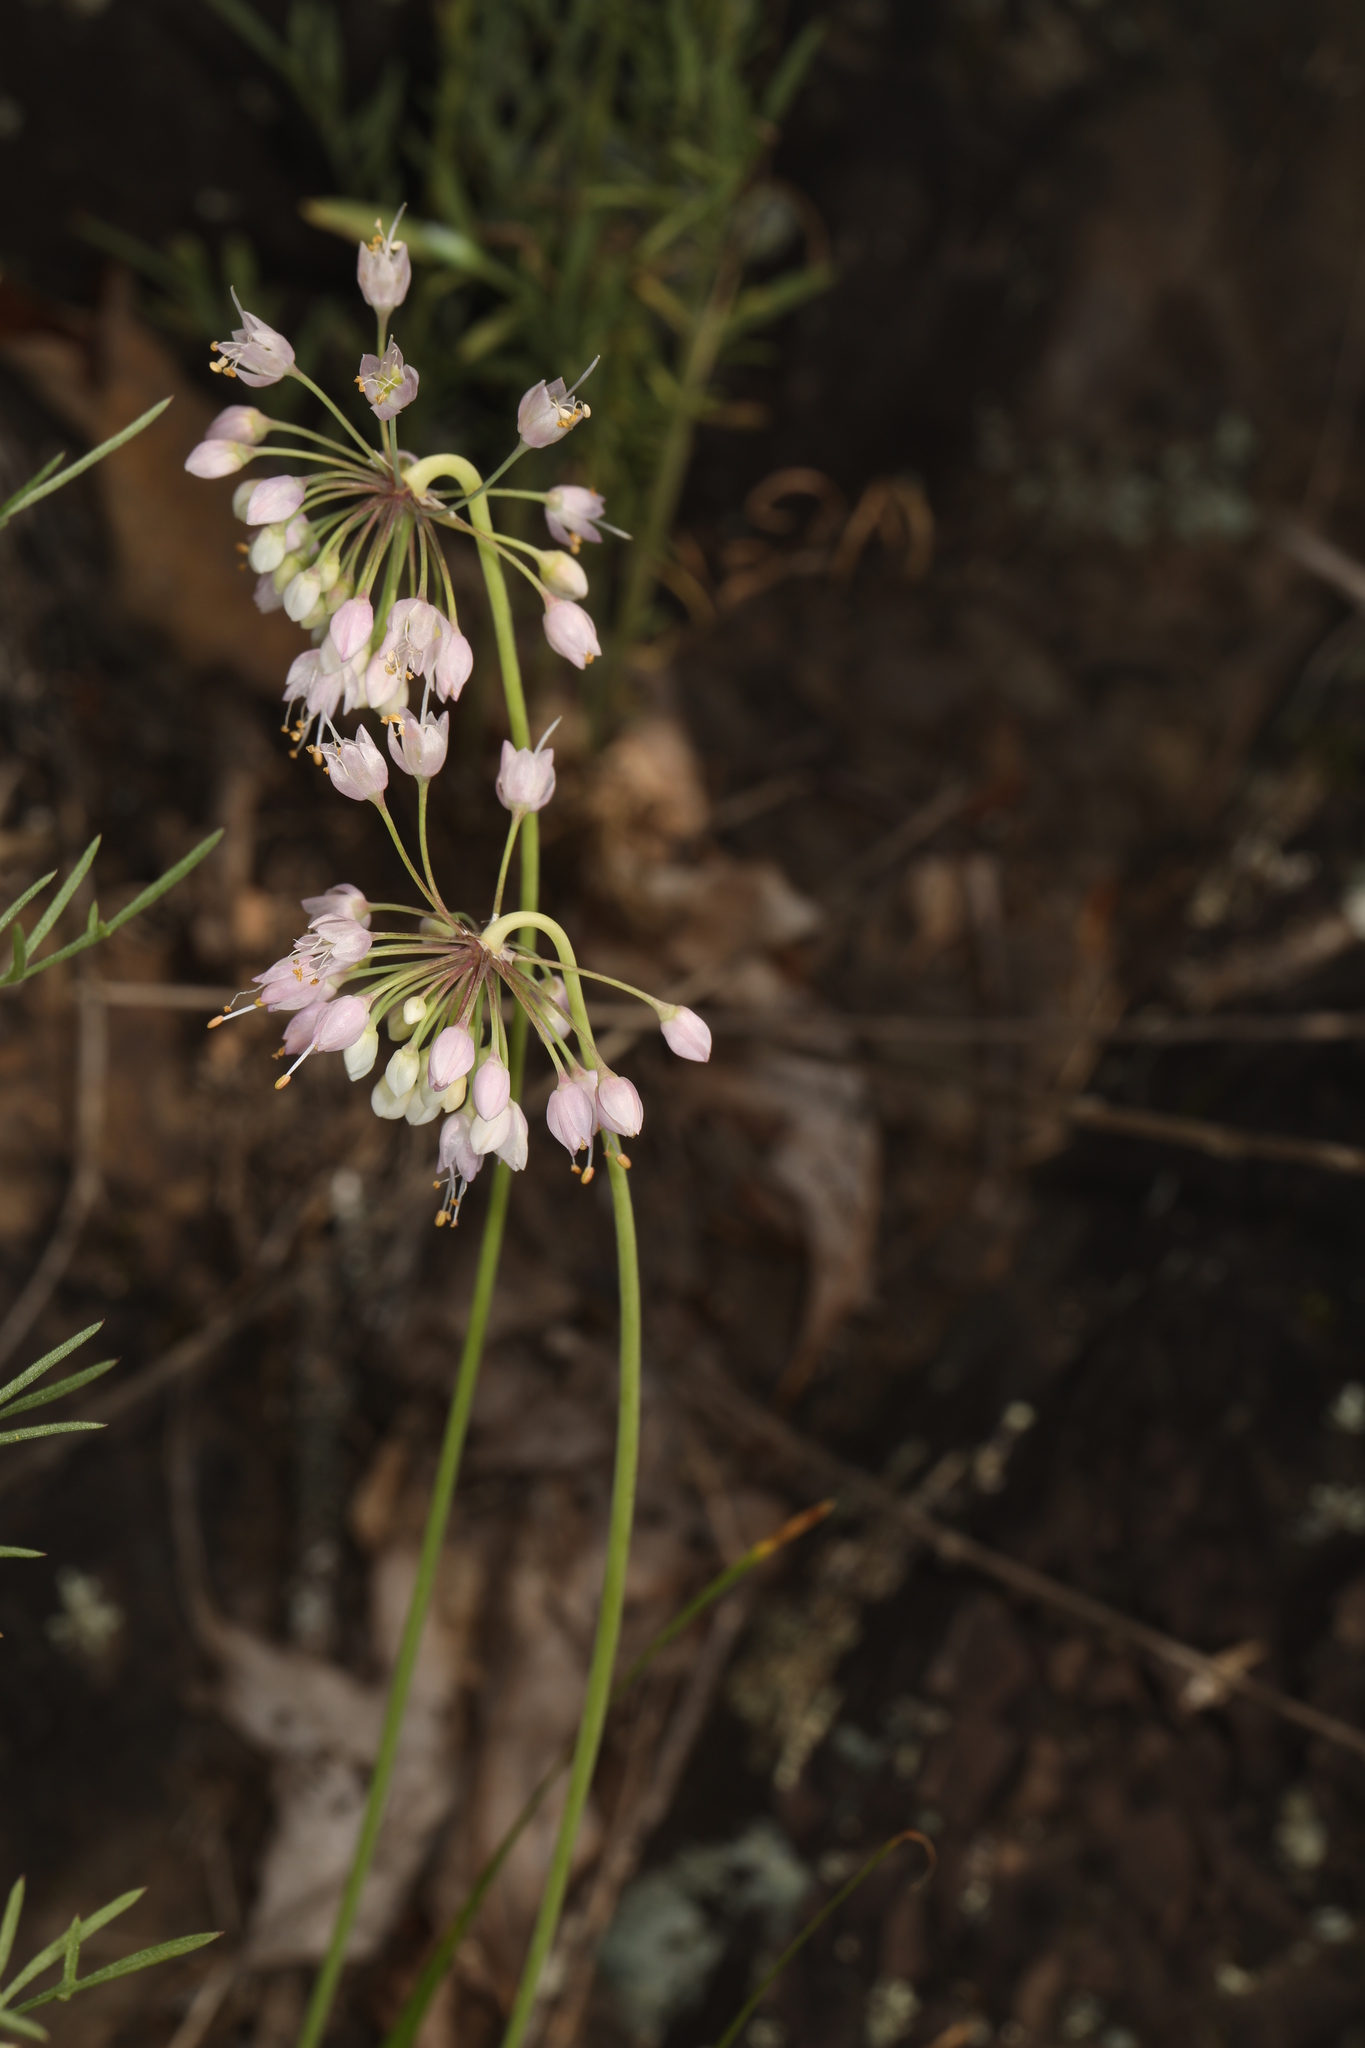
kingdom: Plantae
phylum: Tracheophyta
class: Liliopsida
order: Asparagales
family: Amaryllidaceae
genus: Allium
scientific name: Allium cernuum
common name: Nodding onion
